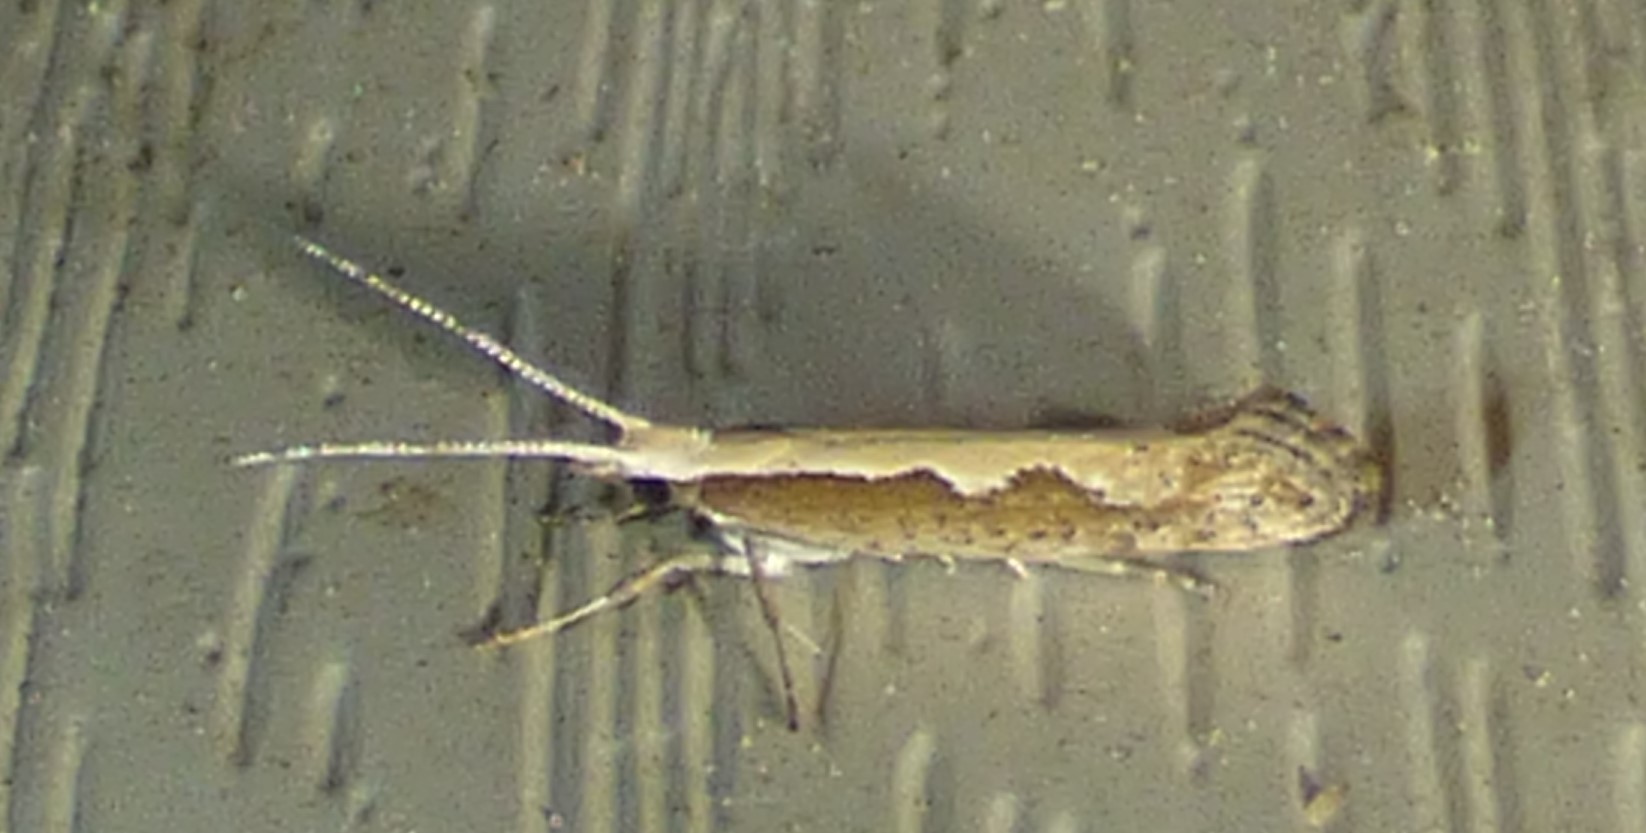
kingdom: Animalia
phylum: Arthropoda
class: Insecta
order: Lepidoptera
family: Plutellidae
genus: Plutella
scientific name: Plutella xylostella
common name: Diamond-back moth
